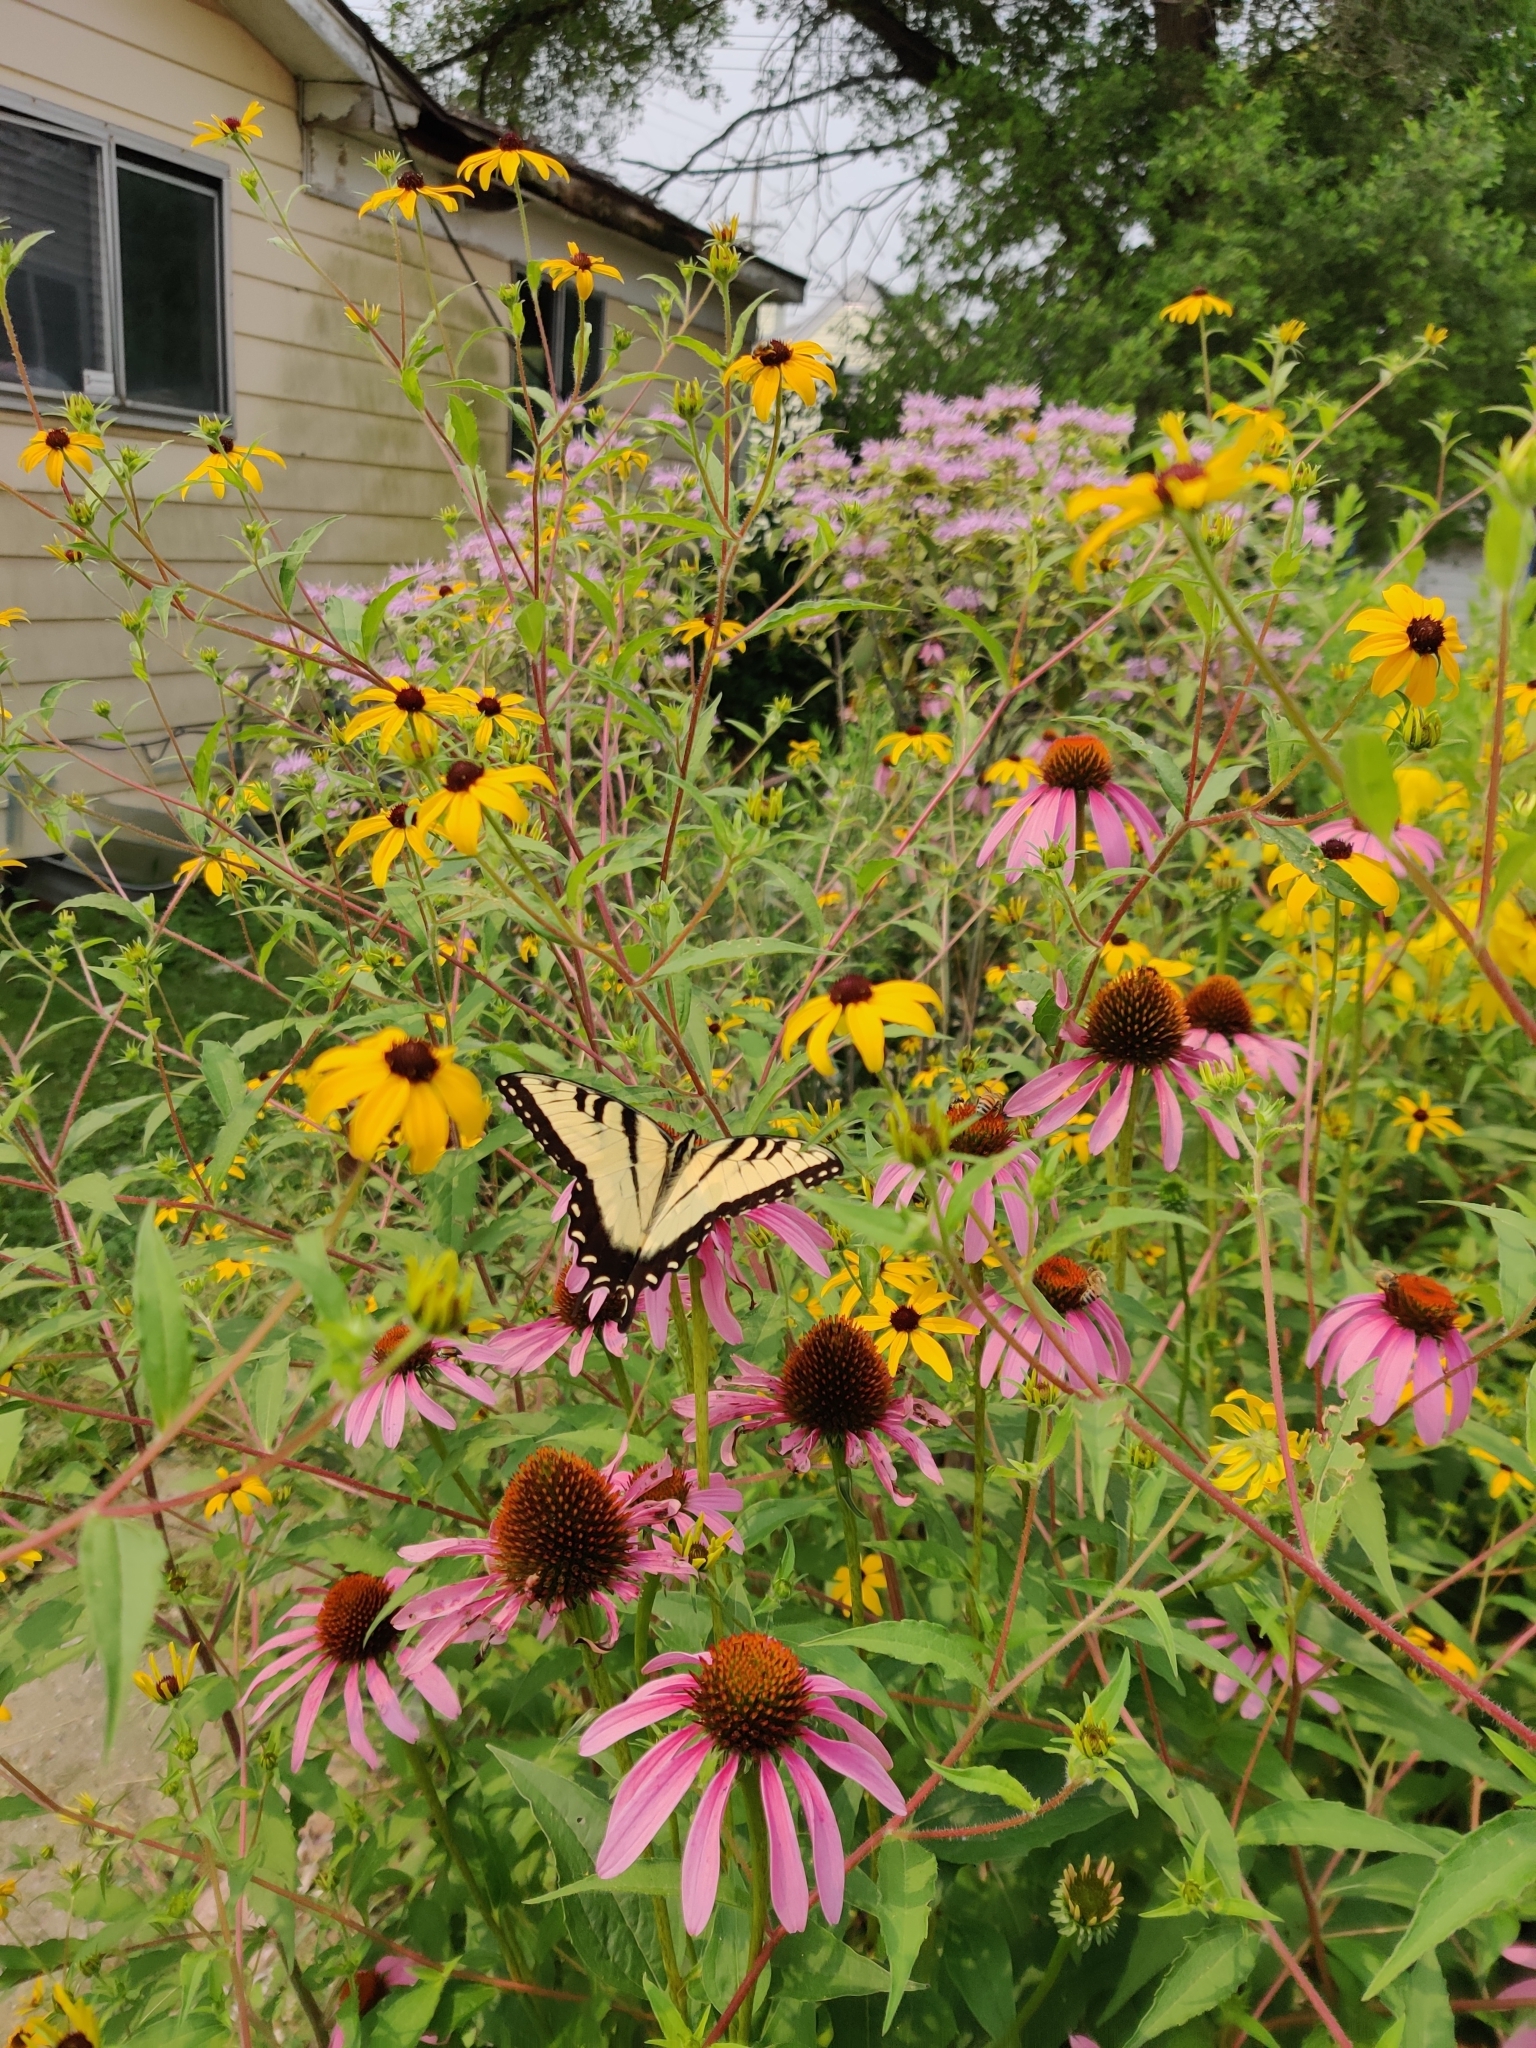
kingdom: Animalia
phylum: Arthropoda
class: Insecta
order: Lepidoptera
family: Papilionidae
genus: Papilio
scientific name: Papilio glaucus
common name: Tiger swallowtail
